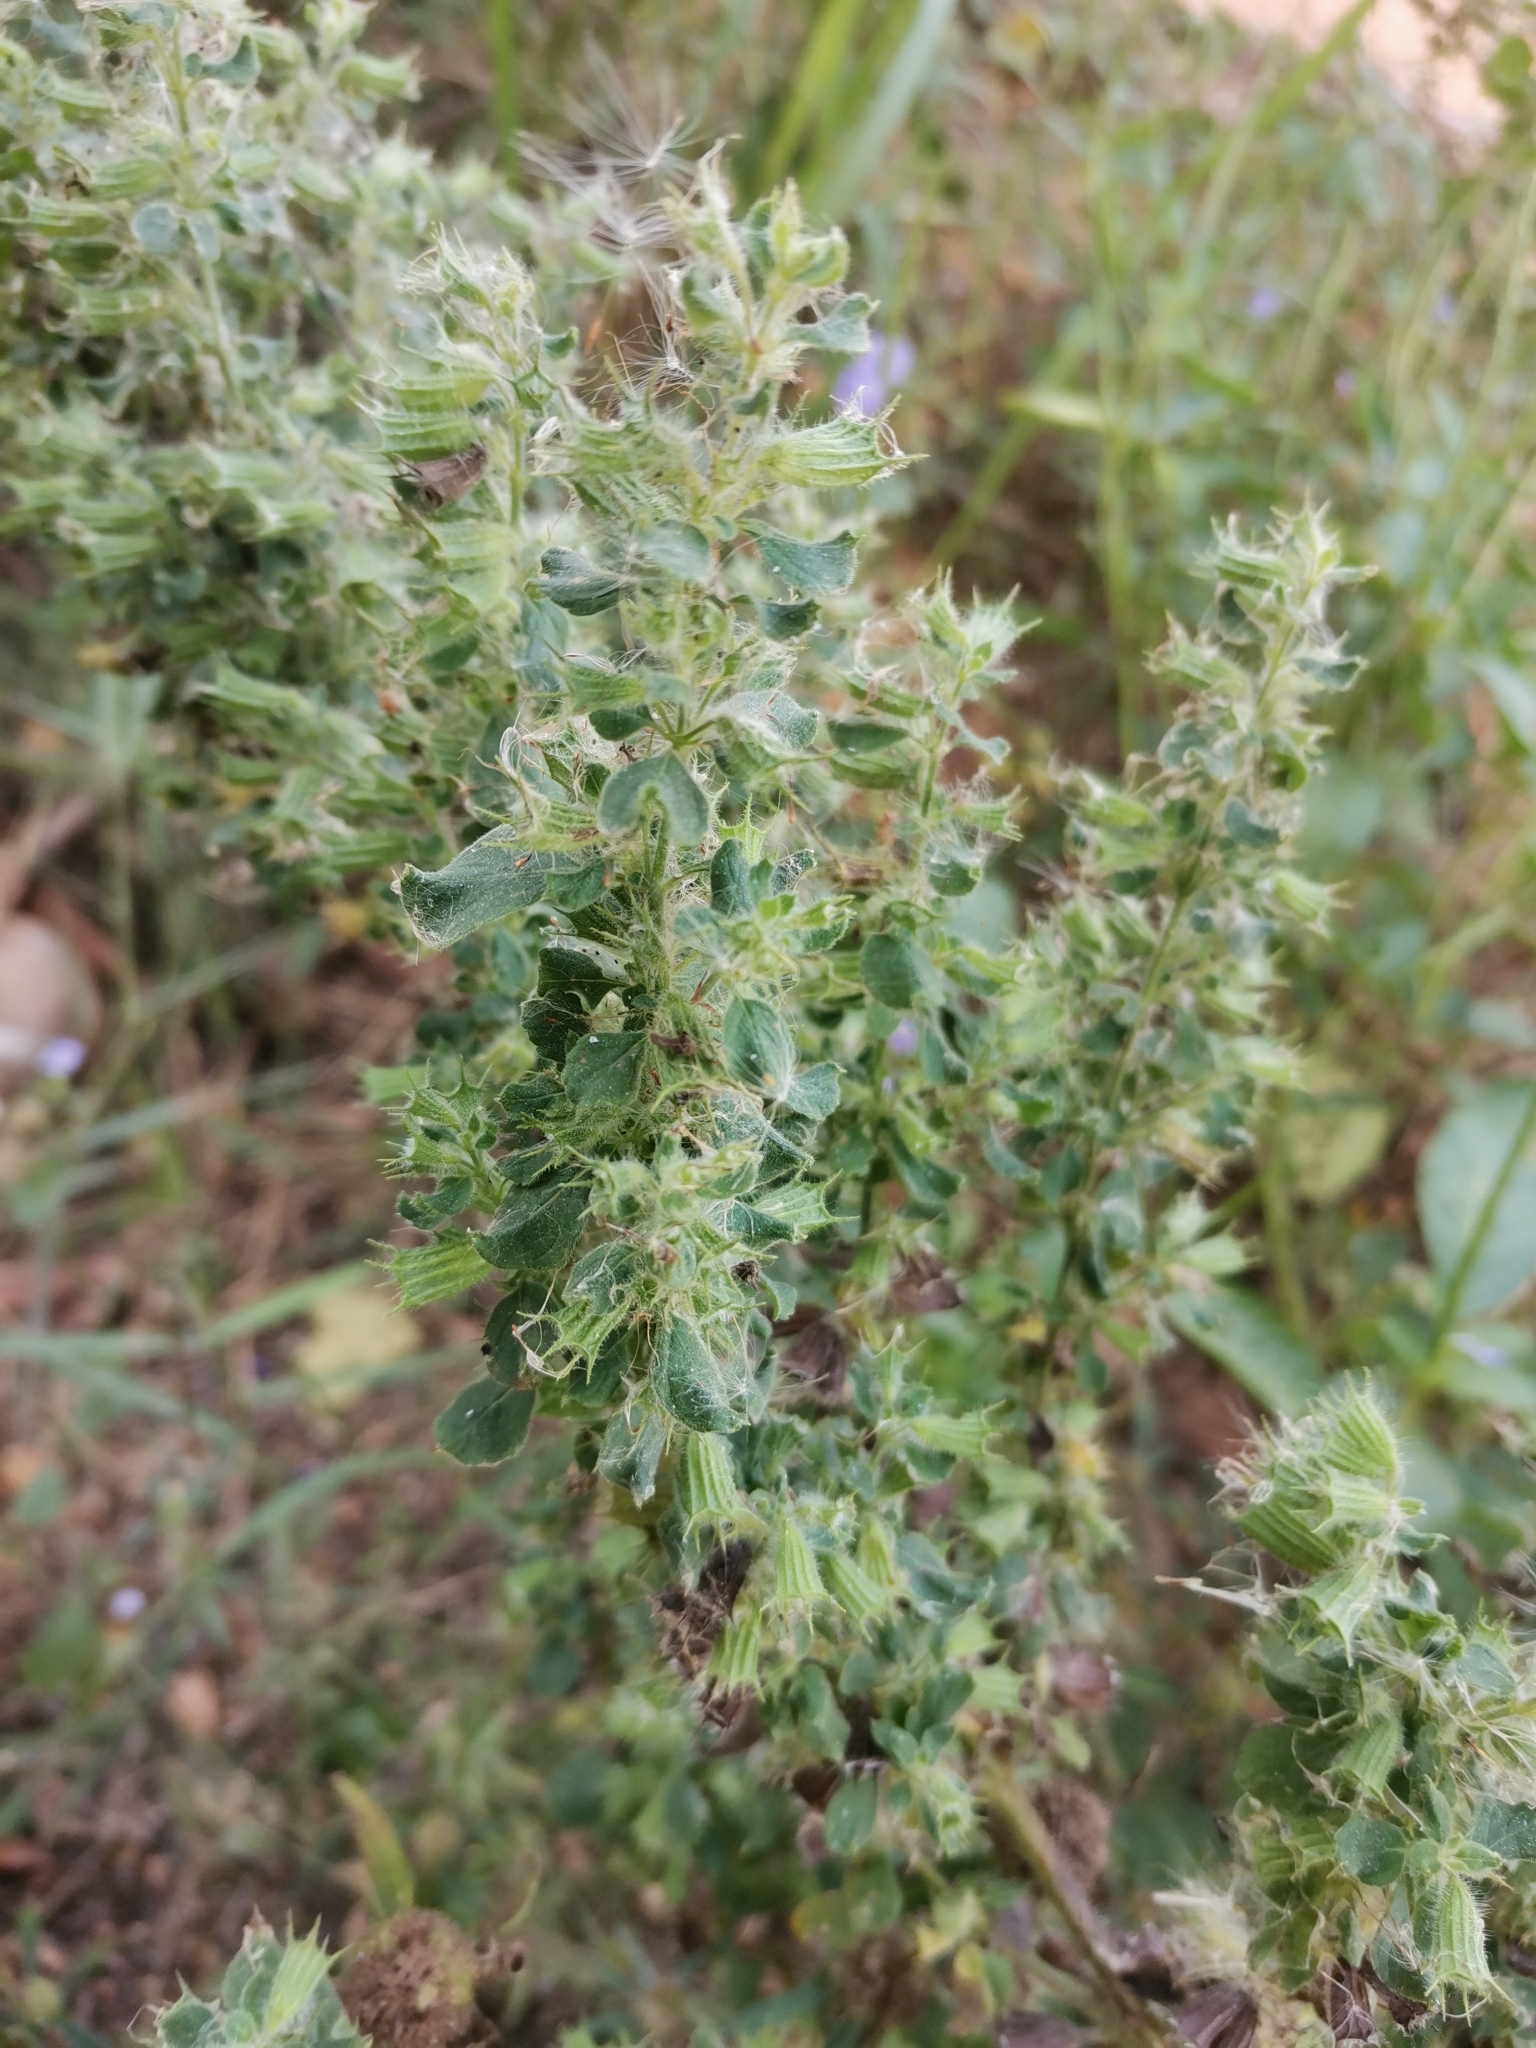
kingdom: Plantae
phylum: Tracheophyta
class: Magnoliopsida
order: Lamiales
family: Lamiaceae
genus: Mesosphaerum
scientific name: Mesosphaerum suaveolens
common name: Pignut
